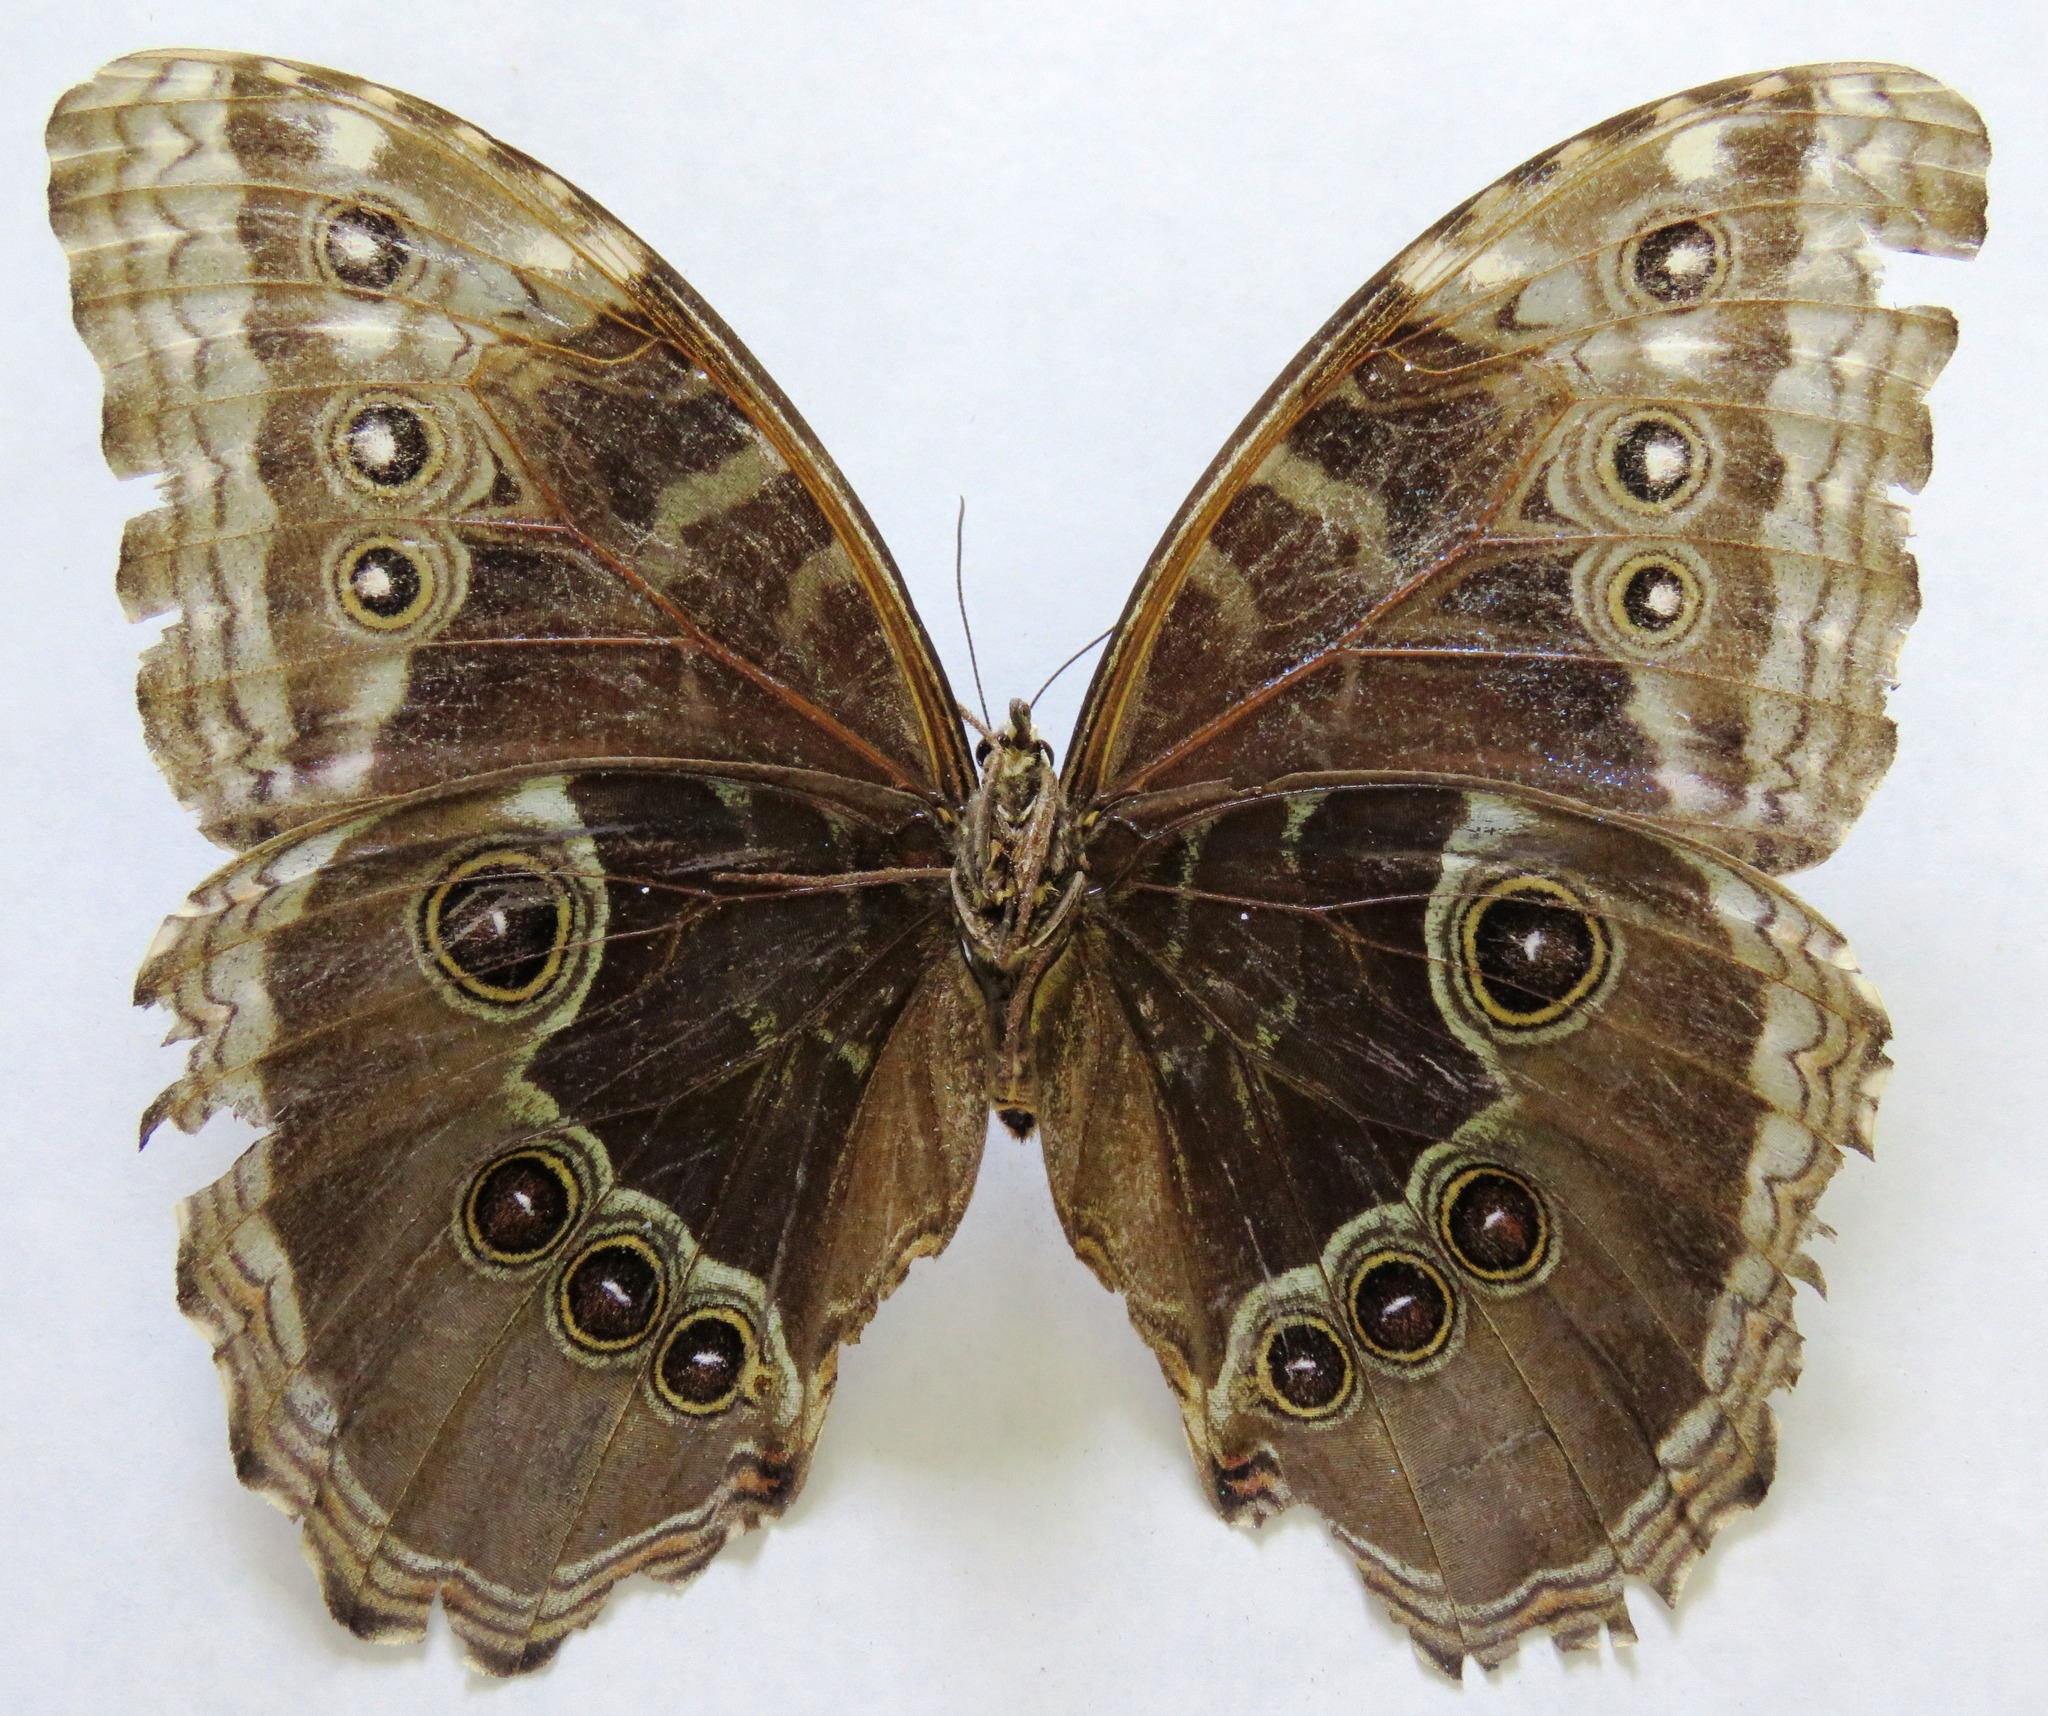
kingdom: Animalia
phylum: Arthropoda
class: Insecta
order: Lepidoptera
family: Nymphalidae
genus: Morpho
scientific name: Morpho helenor
